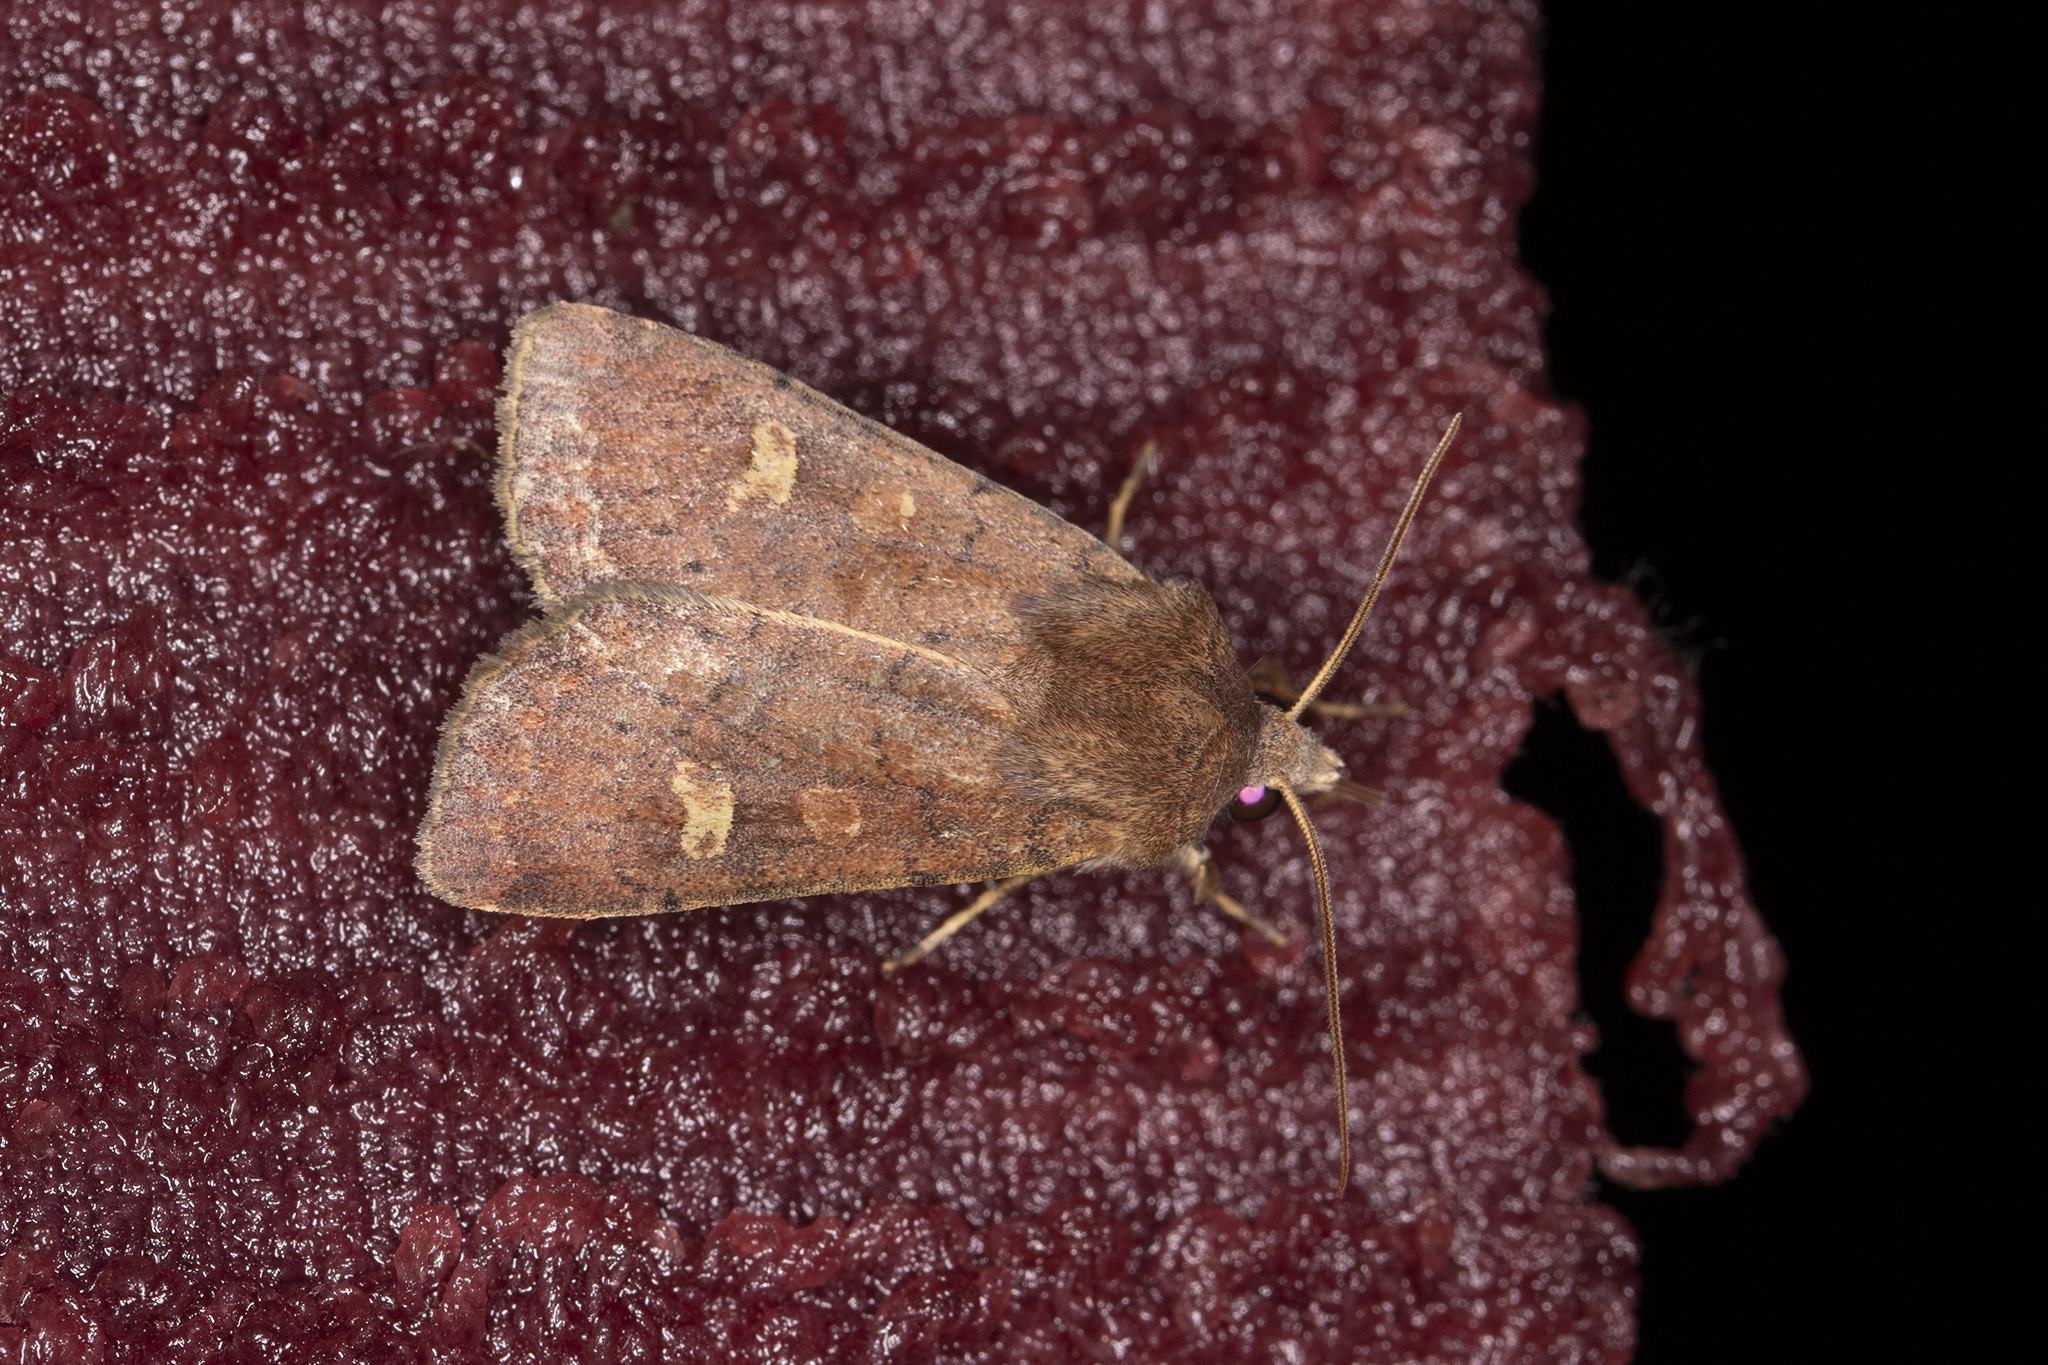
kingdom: Animalia
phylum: Arthropoda
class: Insecta
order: Lepidoptera
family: Noctuidae
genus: Xestia
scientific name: Xestia xanthographa
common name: Square-spot rustic
